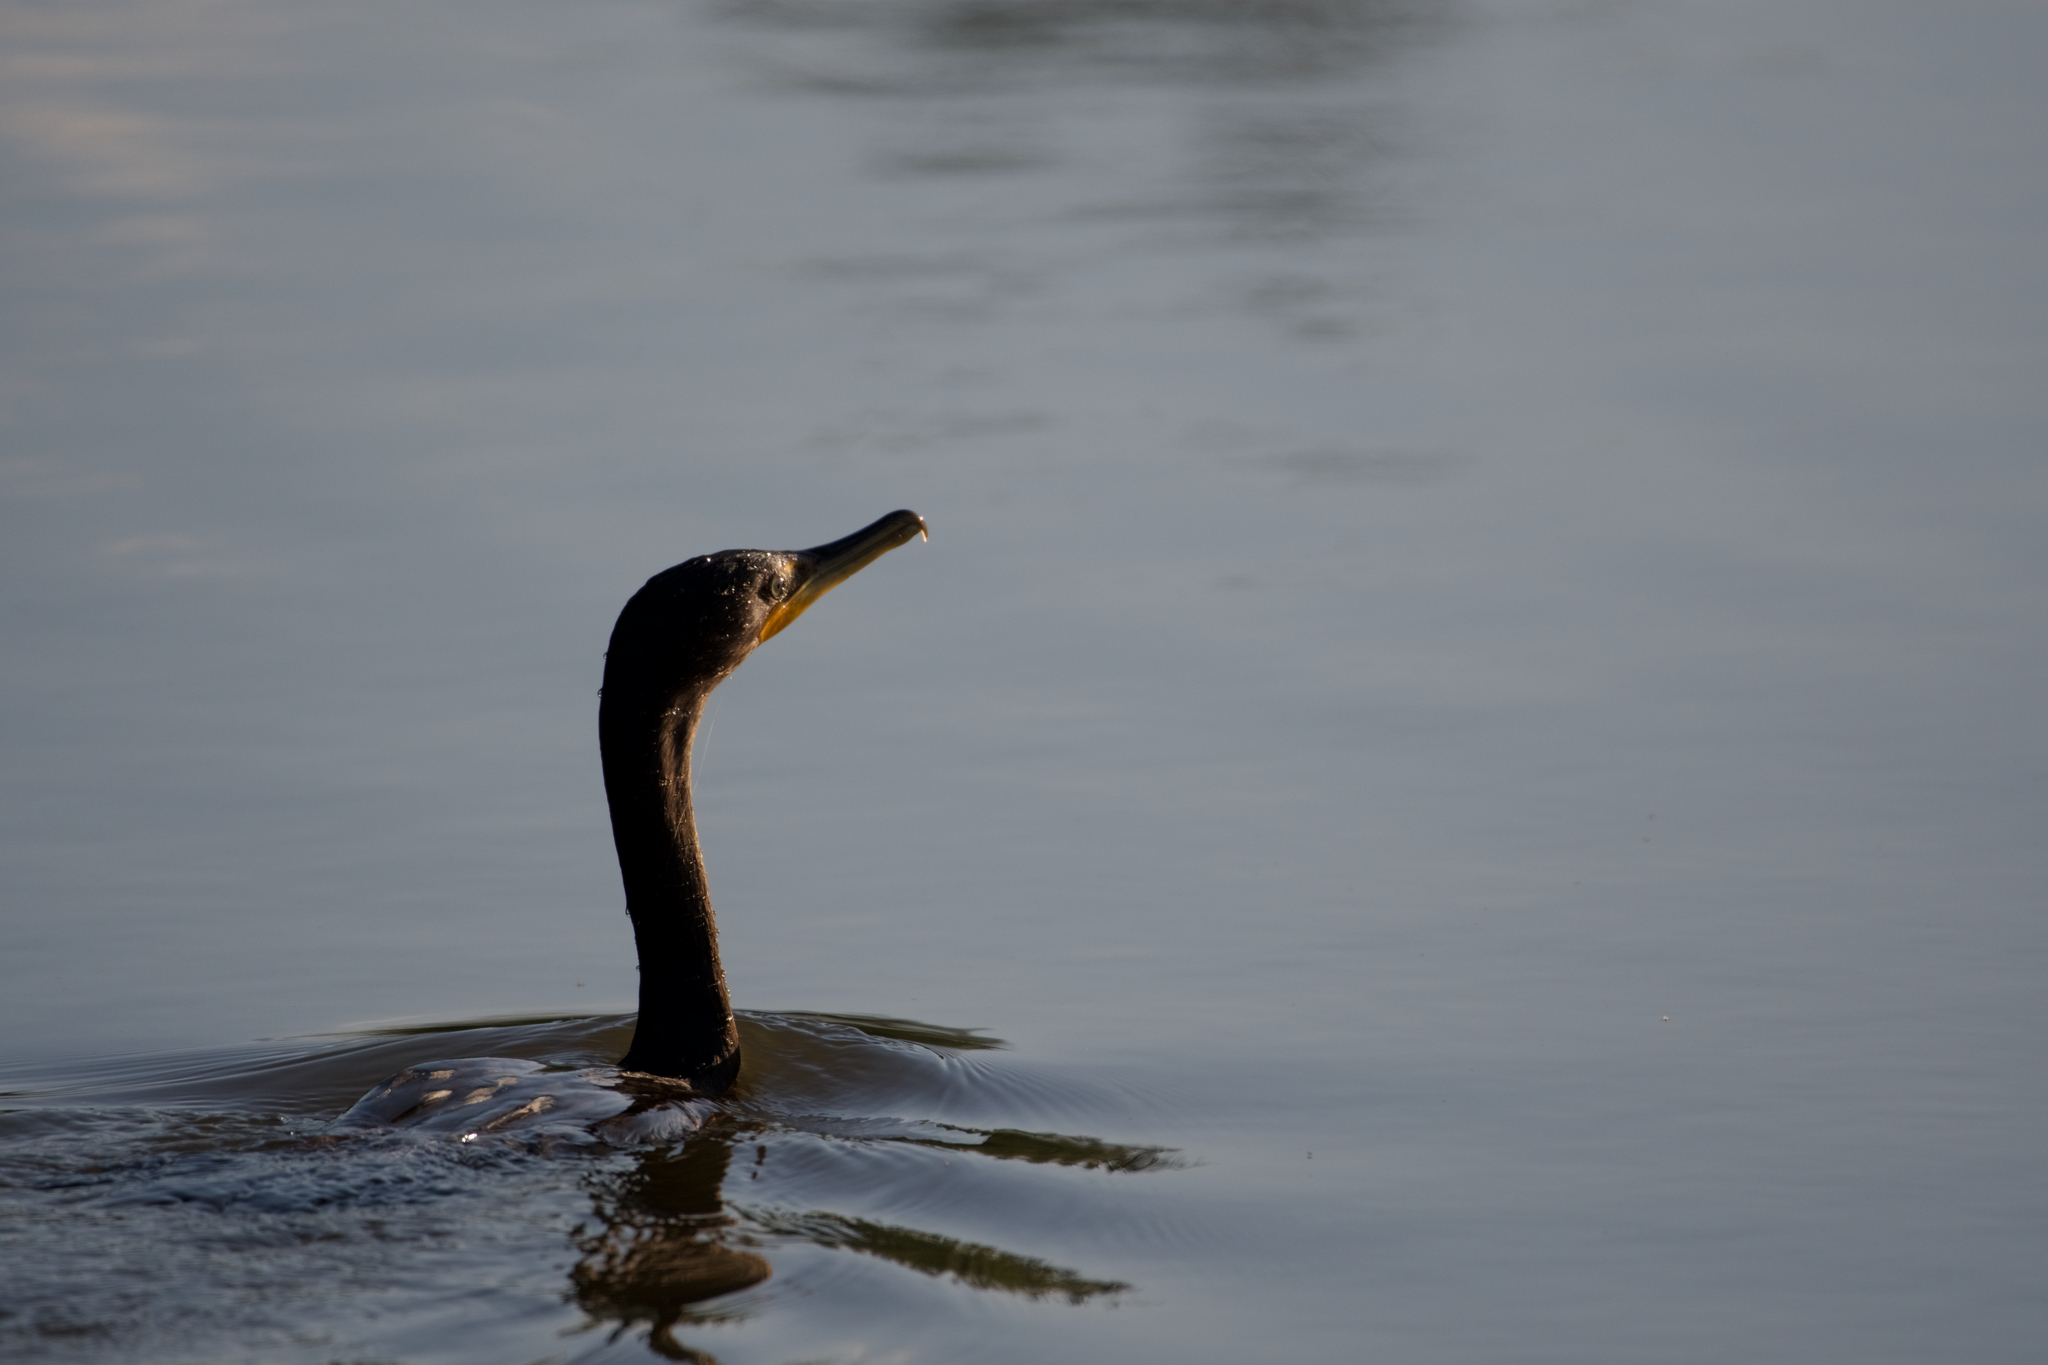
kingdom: Animalia
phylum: Chordata
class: Aves
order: Suliformes
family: Phalacrocoracidae
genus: Phalacrocorax
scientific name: Phalacrocorax auritus
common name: Double-crested cormorant
